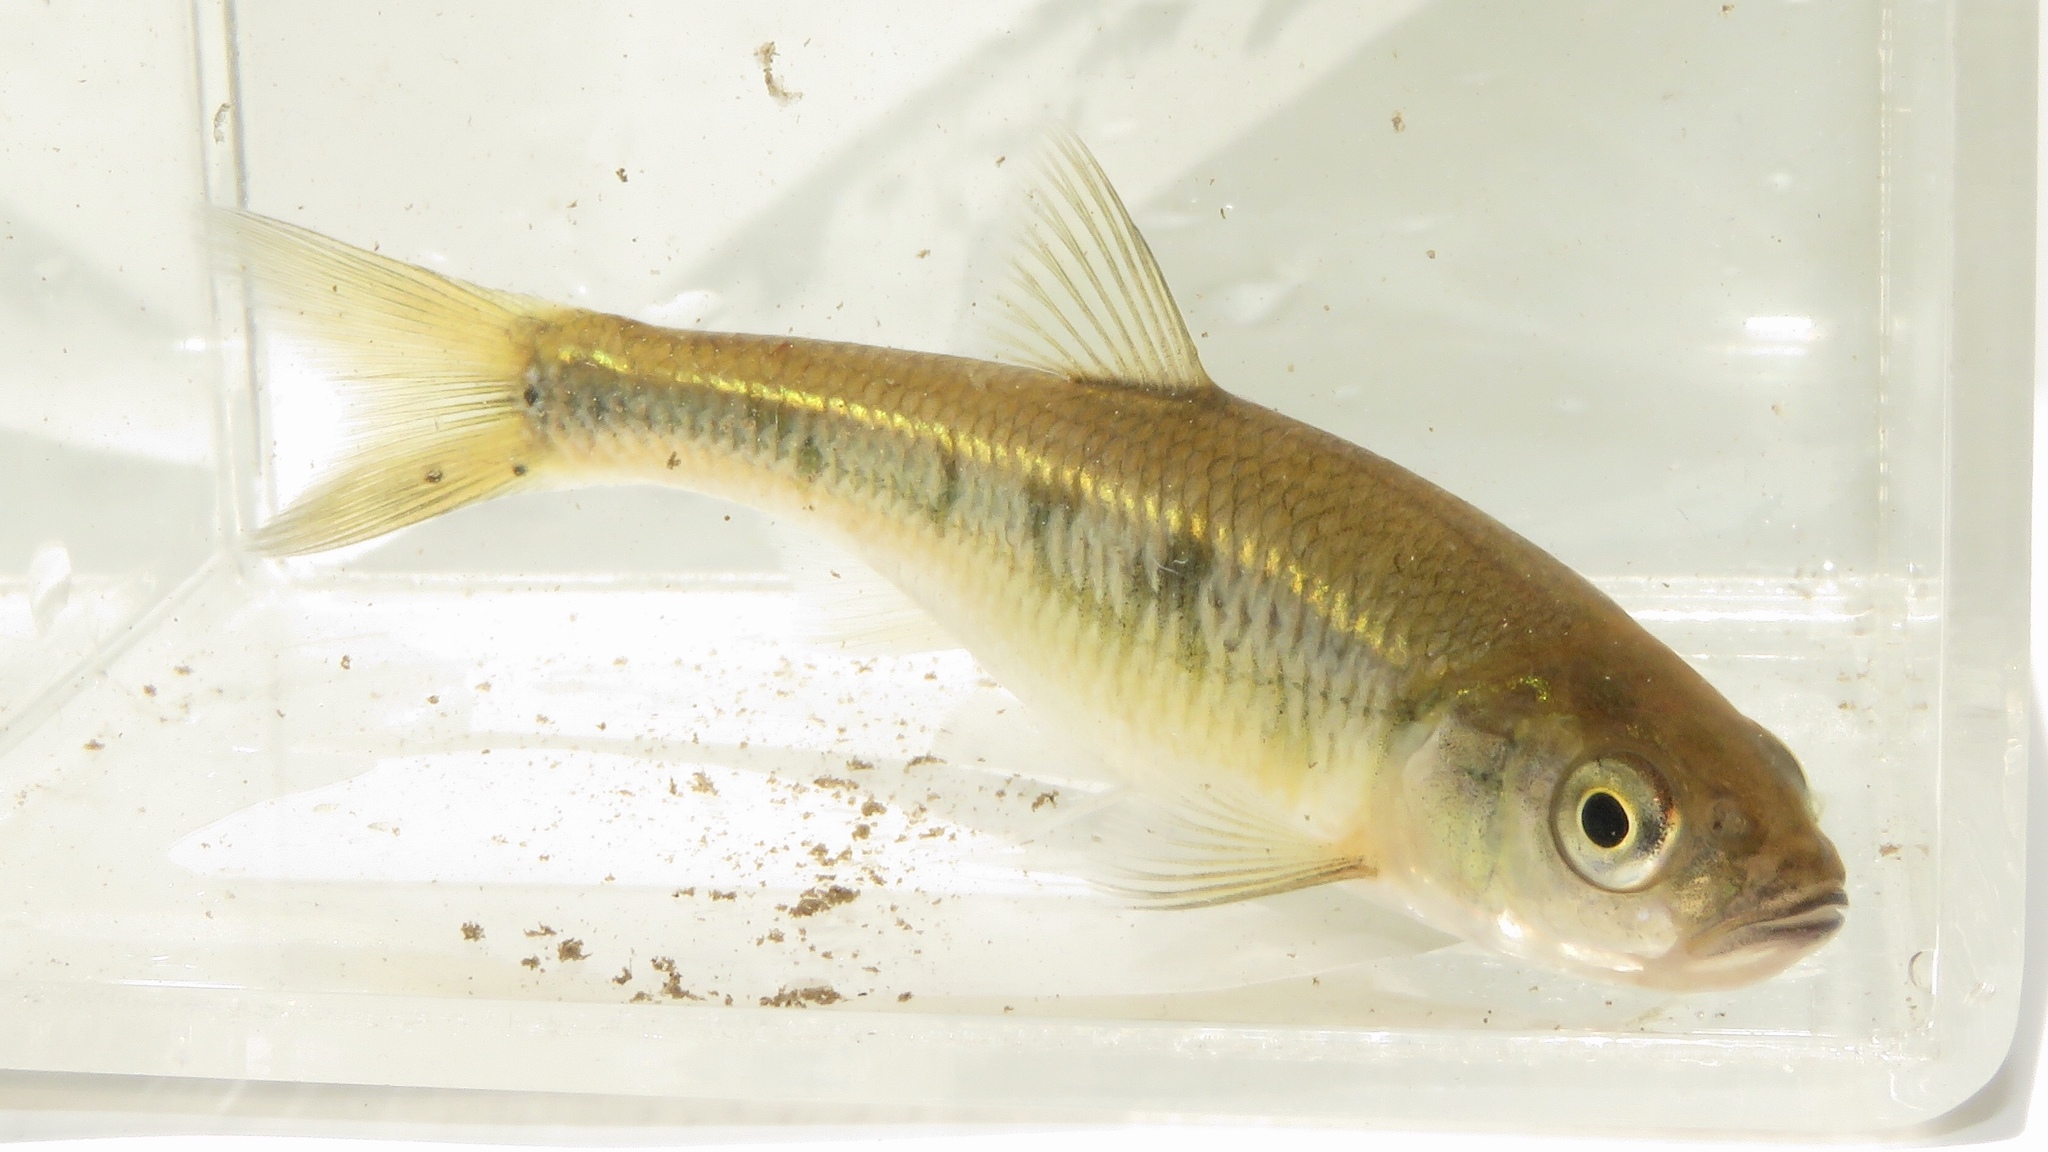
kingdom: Animalia
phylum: Chordata
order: Cypriniformes
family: Cyprinidae
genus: Luxilus
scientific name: Luxilus cornutus
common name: Common shiner
